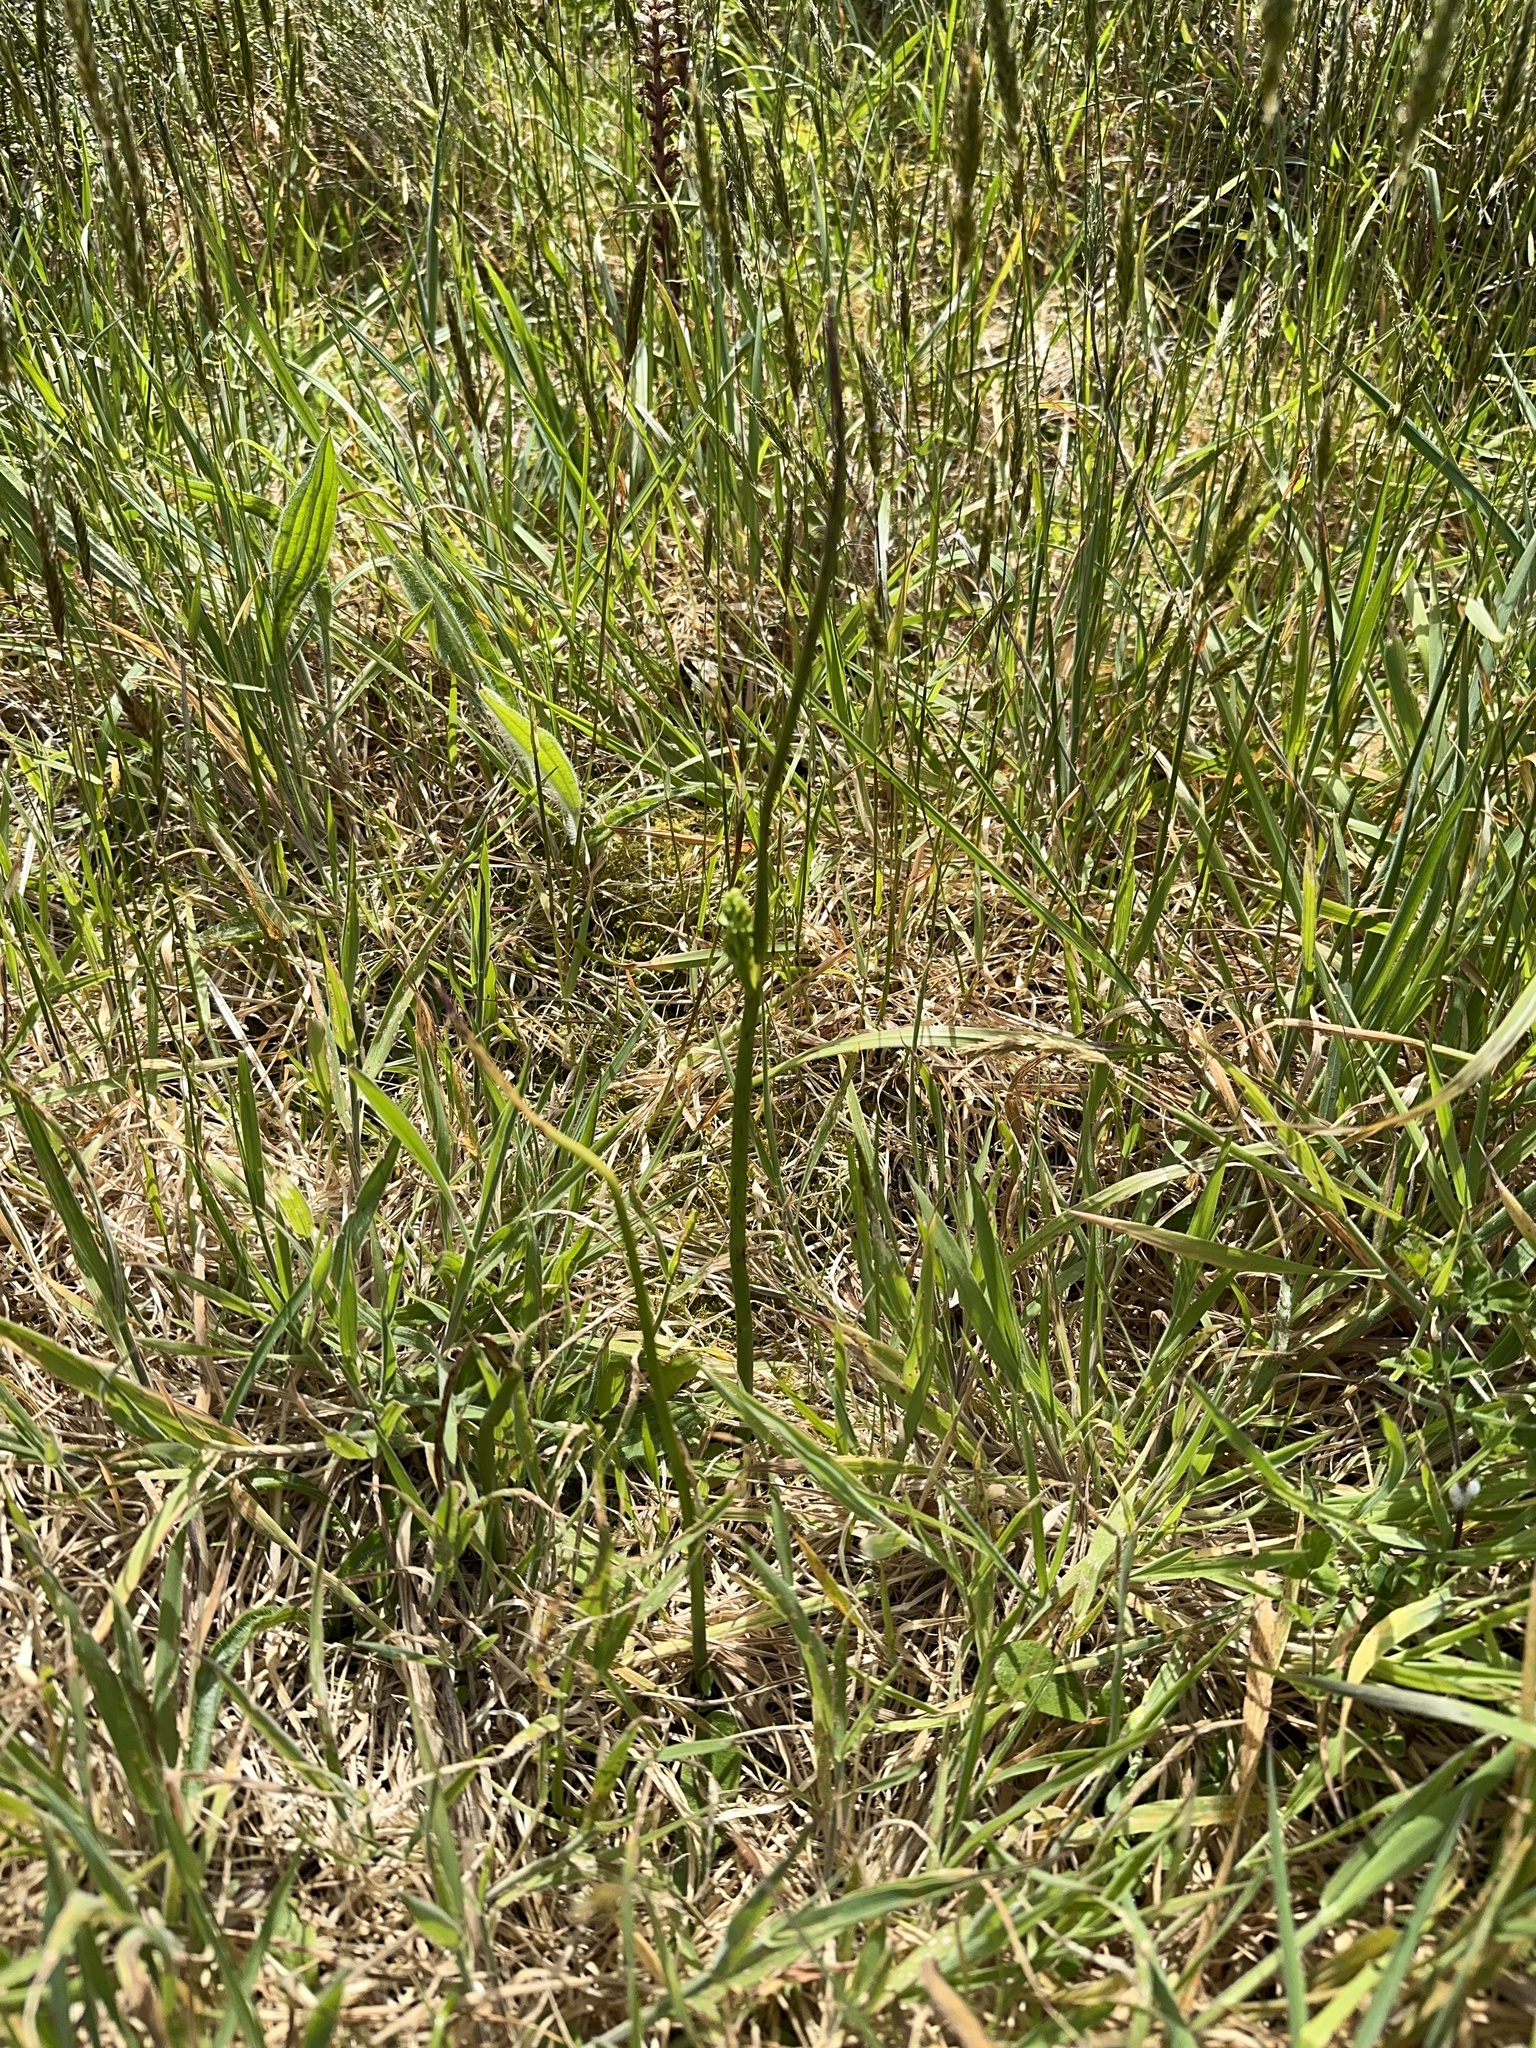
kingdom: Plantae
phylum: Tracheophyta
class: Liliopsida
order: Asparagales
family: Orchidaceae
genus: Microtis
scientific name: Microtis unifolia
